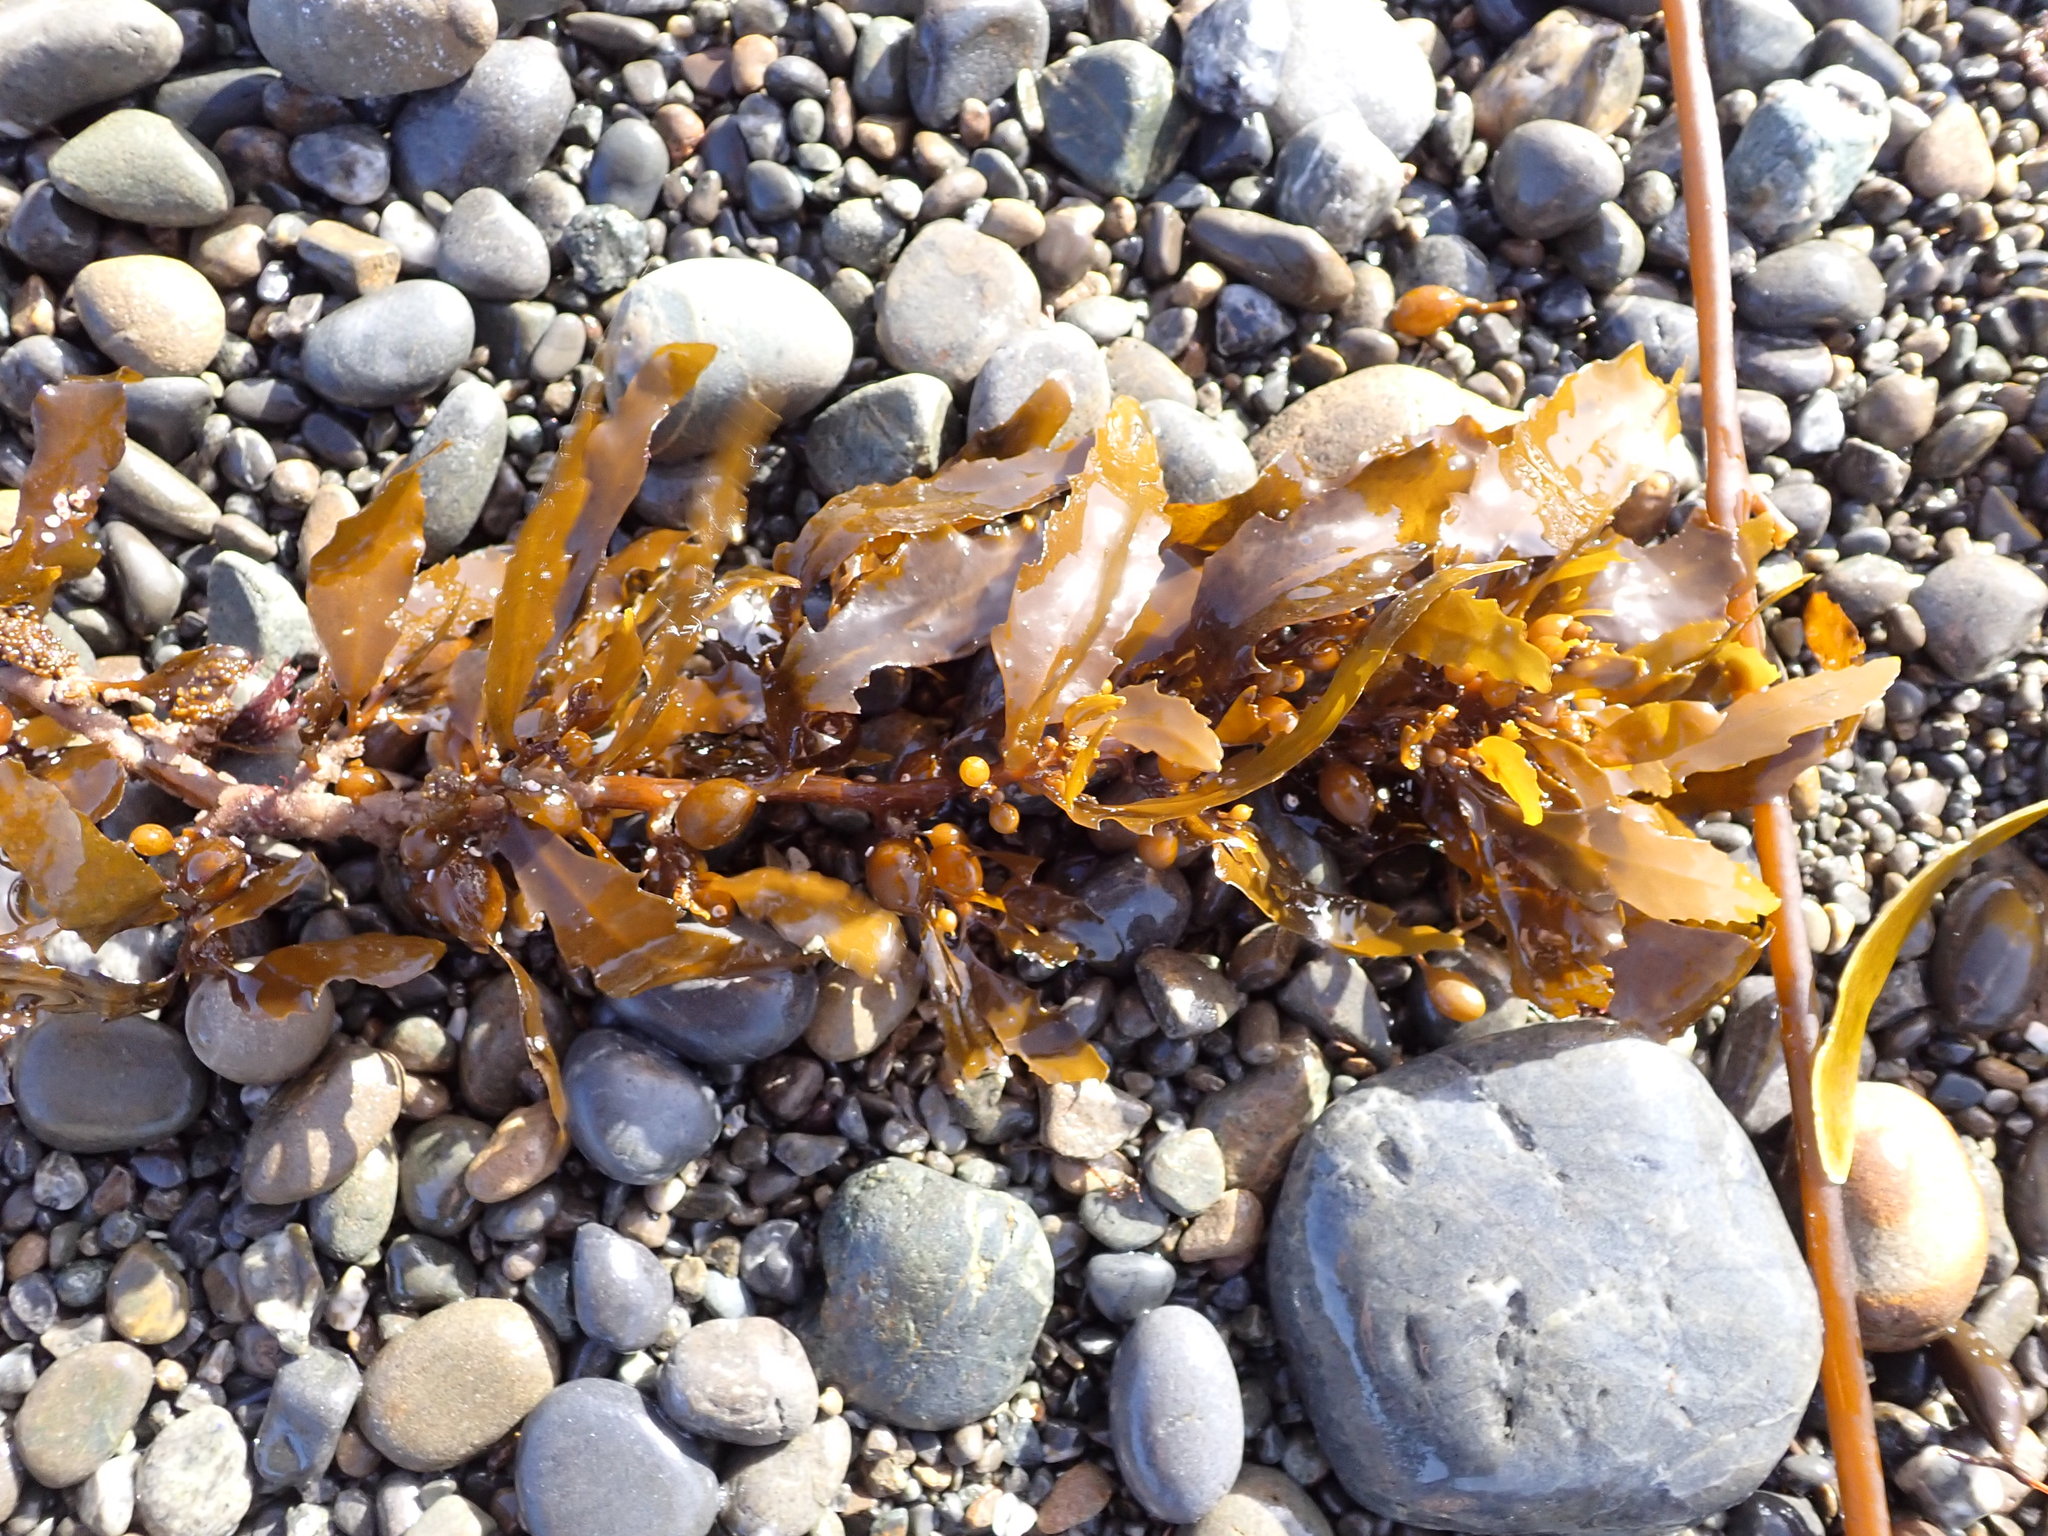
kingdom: Chromista
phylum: Ochrophyta
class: Phaeophyceae
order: Fucales
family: Sargassaceae
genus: Sargassum
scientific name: Sargassum sinclairii
